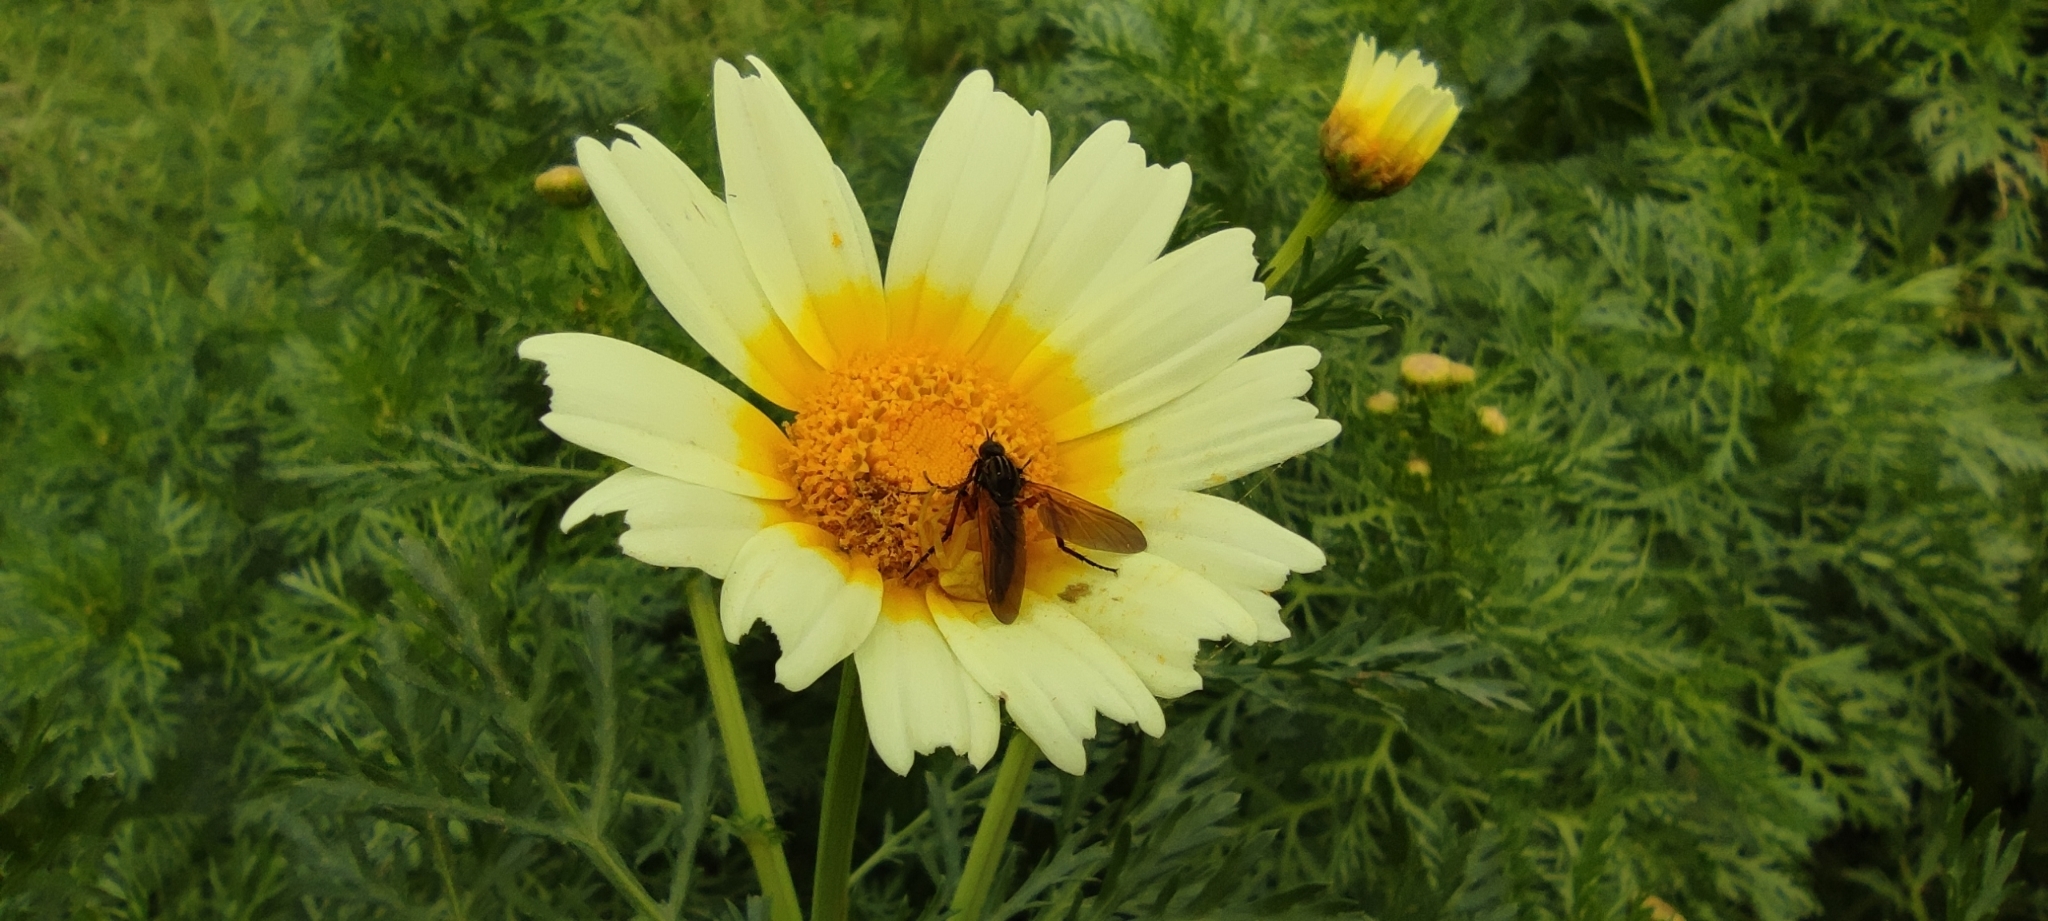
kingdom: Plantae
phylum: Tracheophyta
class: Magnoliopsida
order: Asterales
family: Asteraceae
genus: Glebionis
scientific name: Glebionis coronaria
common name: Crowndaisy
